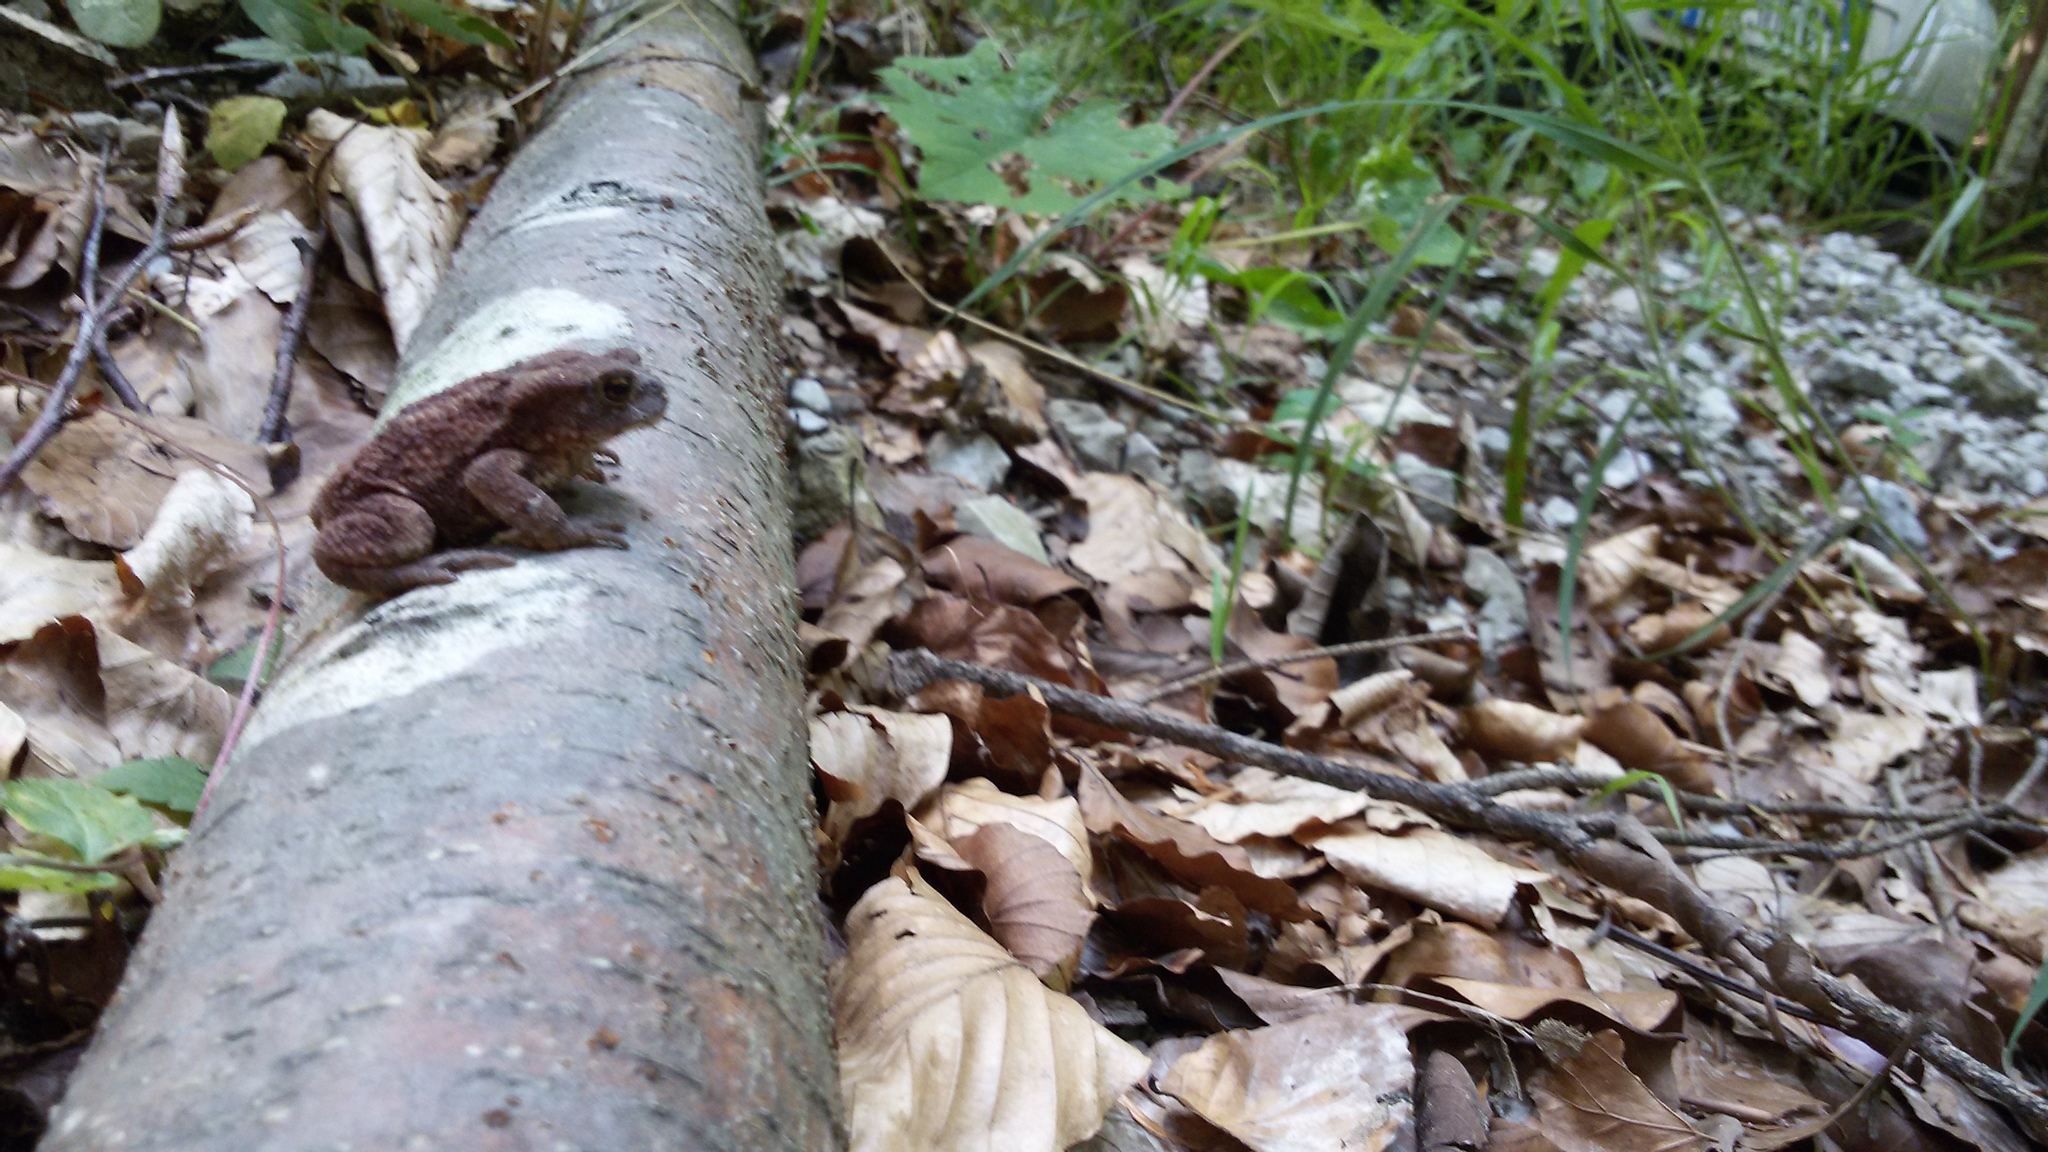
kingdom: Animalia
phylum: Chordata
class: Amphibia
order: Anura
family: Bufonidae
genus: Bufo
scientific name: Bufo bufo
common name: Common toad
